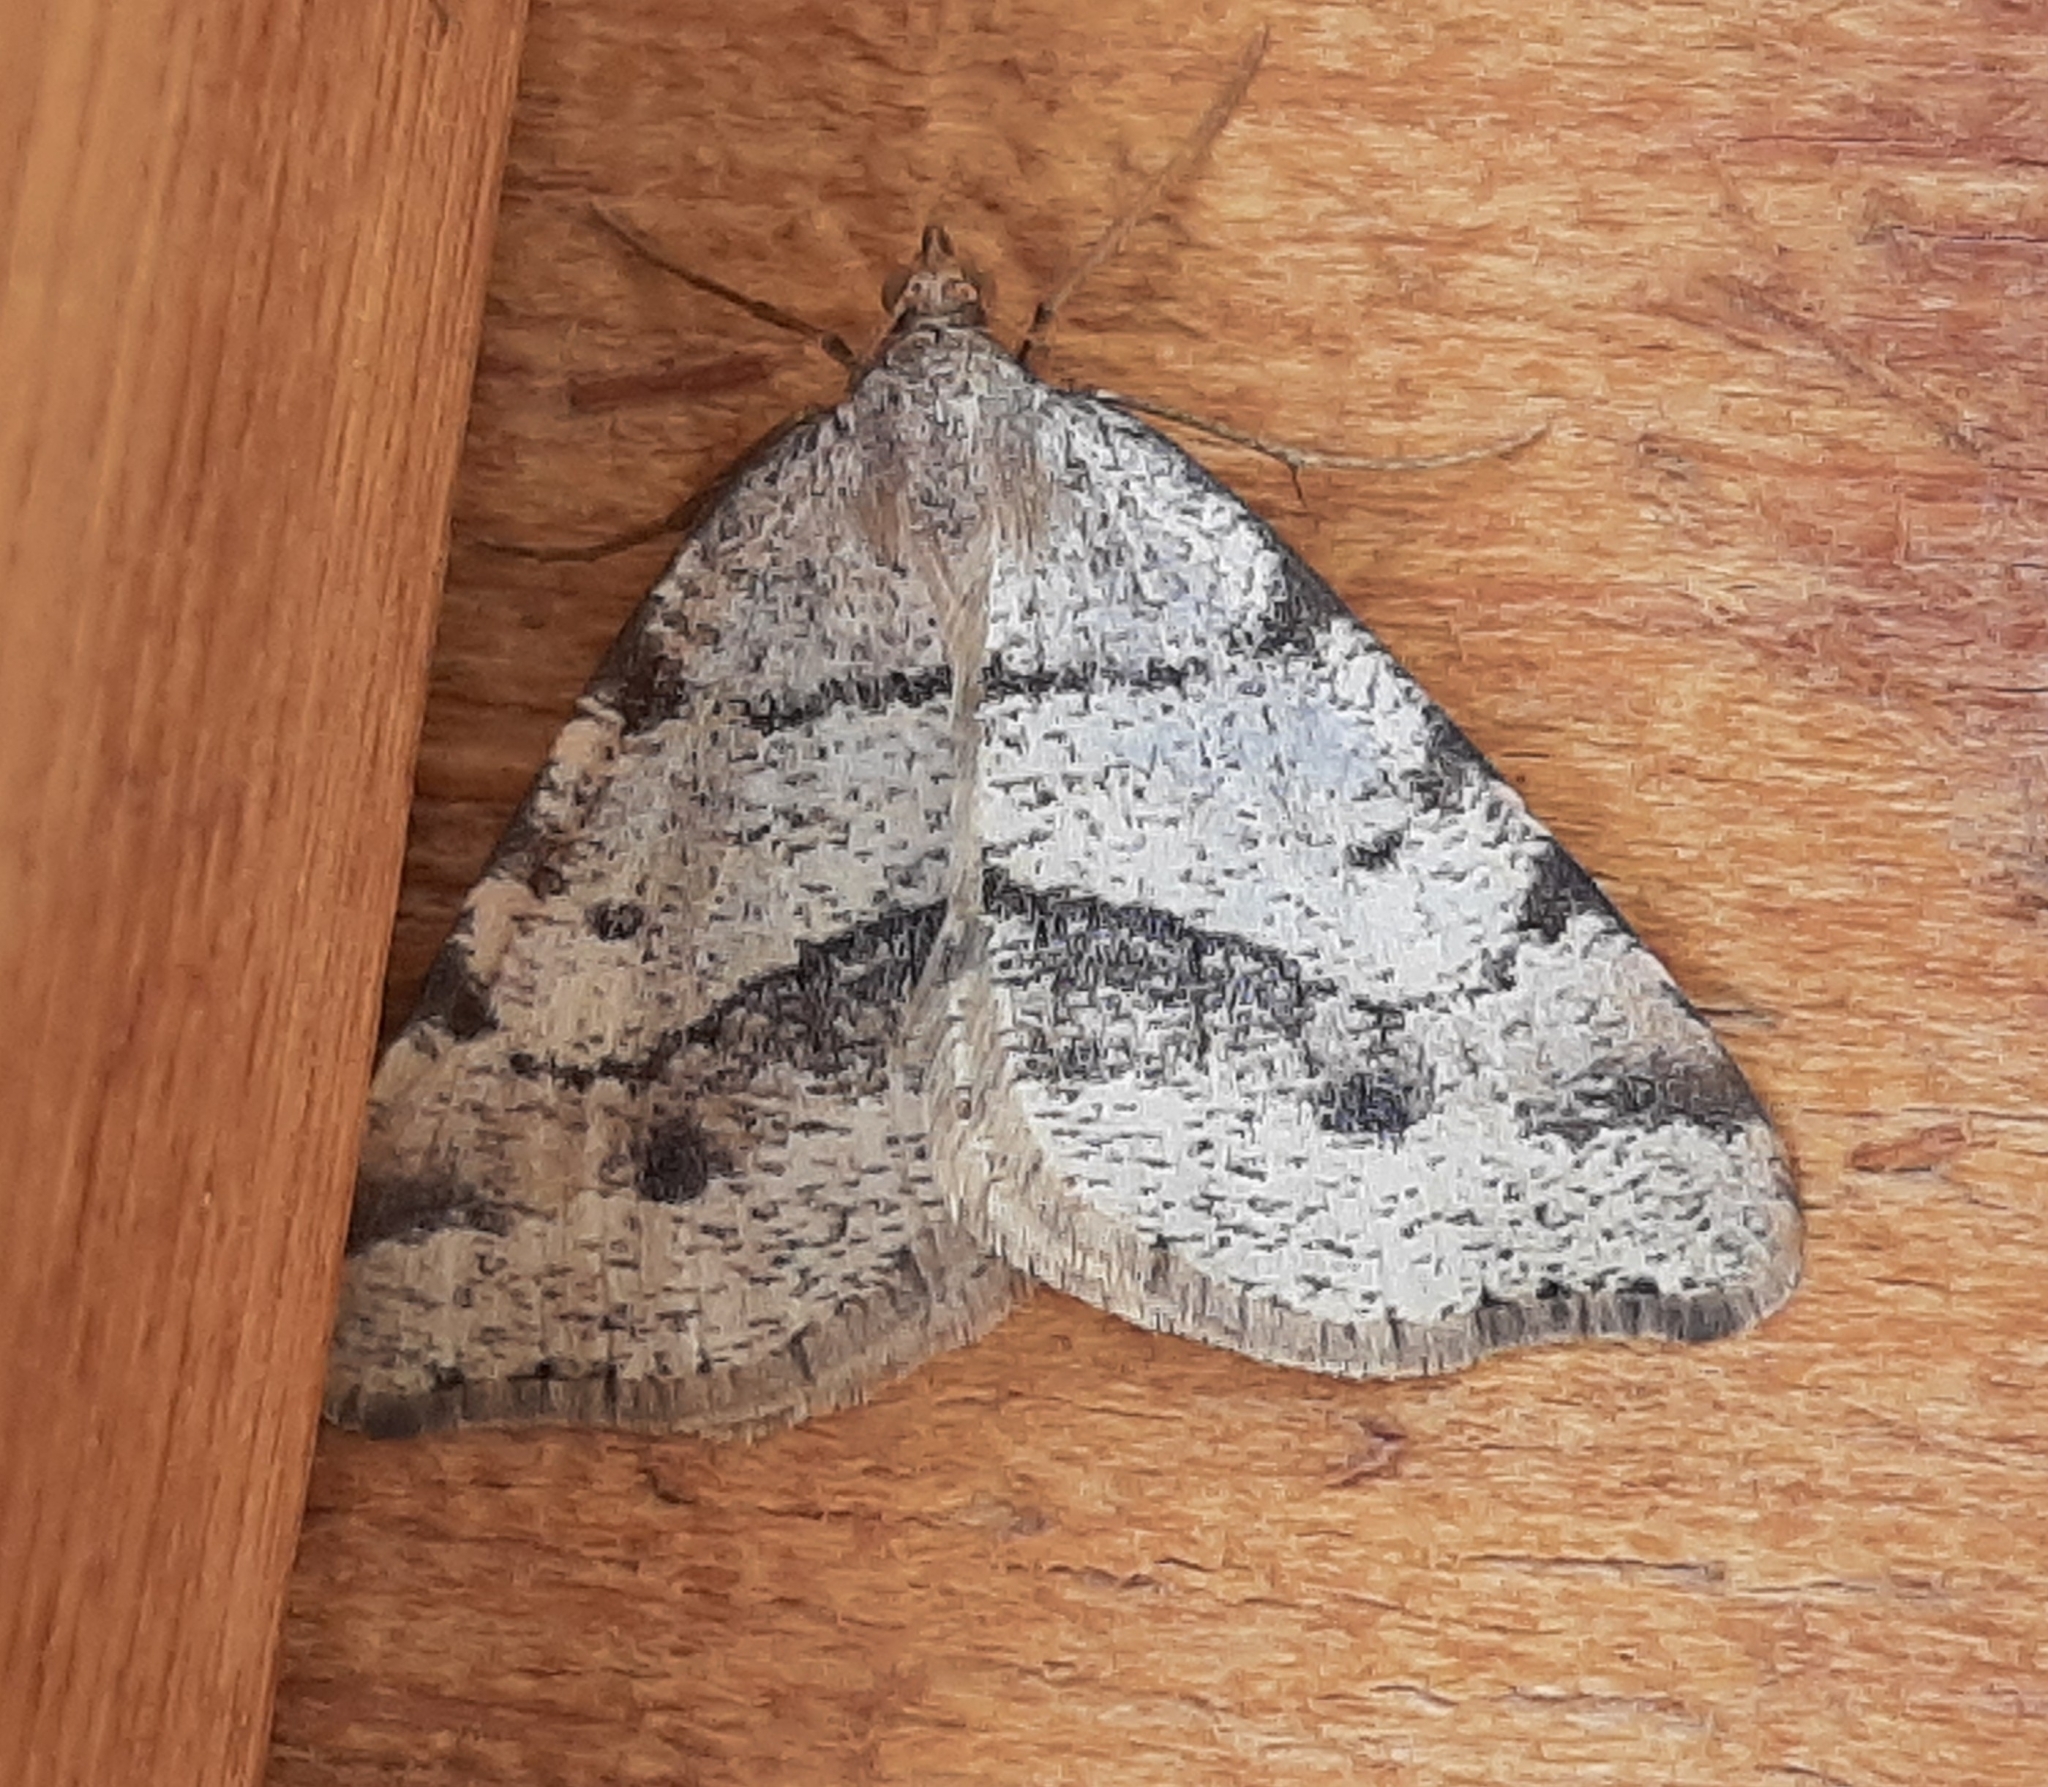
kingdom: Animalia
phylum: Arthropoda
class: Insecta
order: Lepidoptera
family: Geometridae
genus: Macaria
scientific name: Macaria flavicaria
